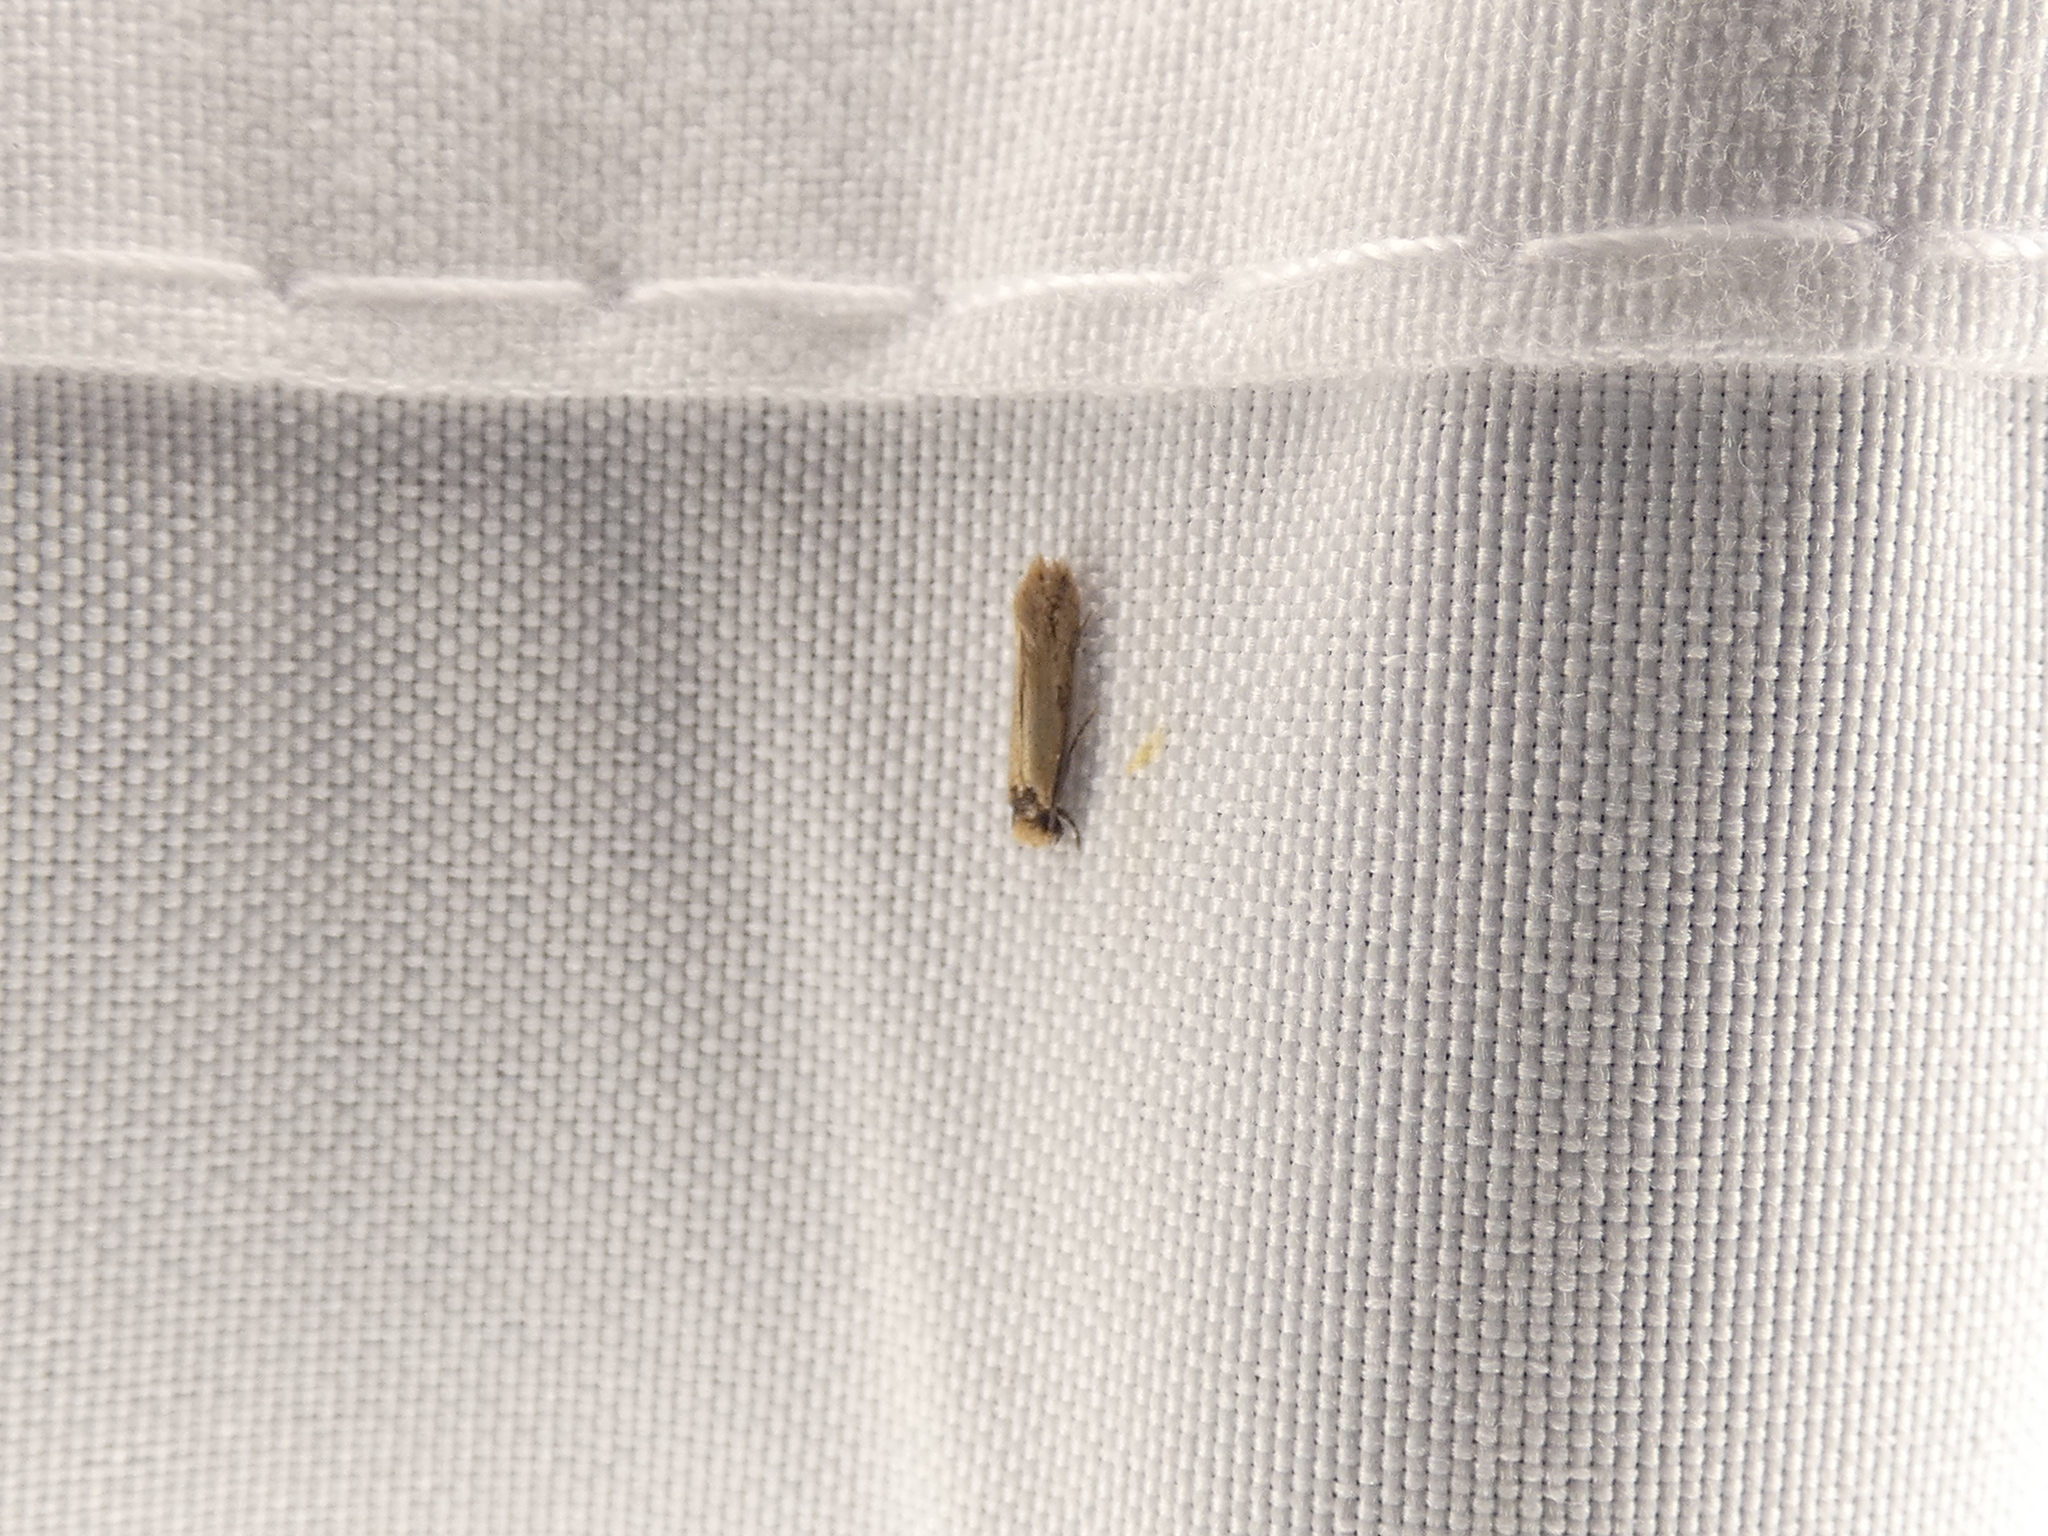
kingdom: Animalia
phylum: Arthropoda
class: Insecta
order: Lepidoptera
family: Tineidae
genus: Tinea
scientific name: Tinea apicimaculella
